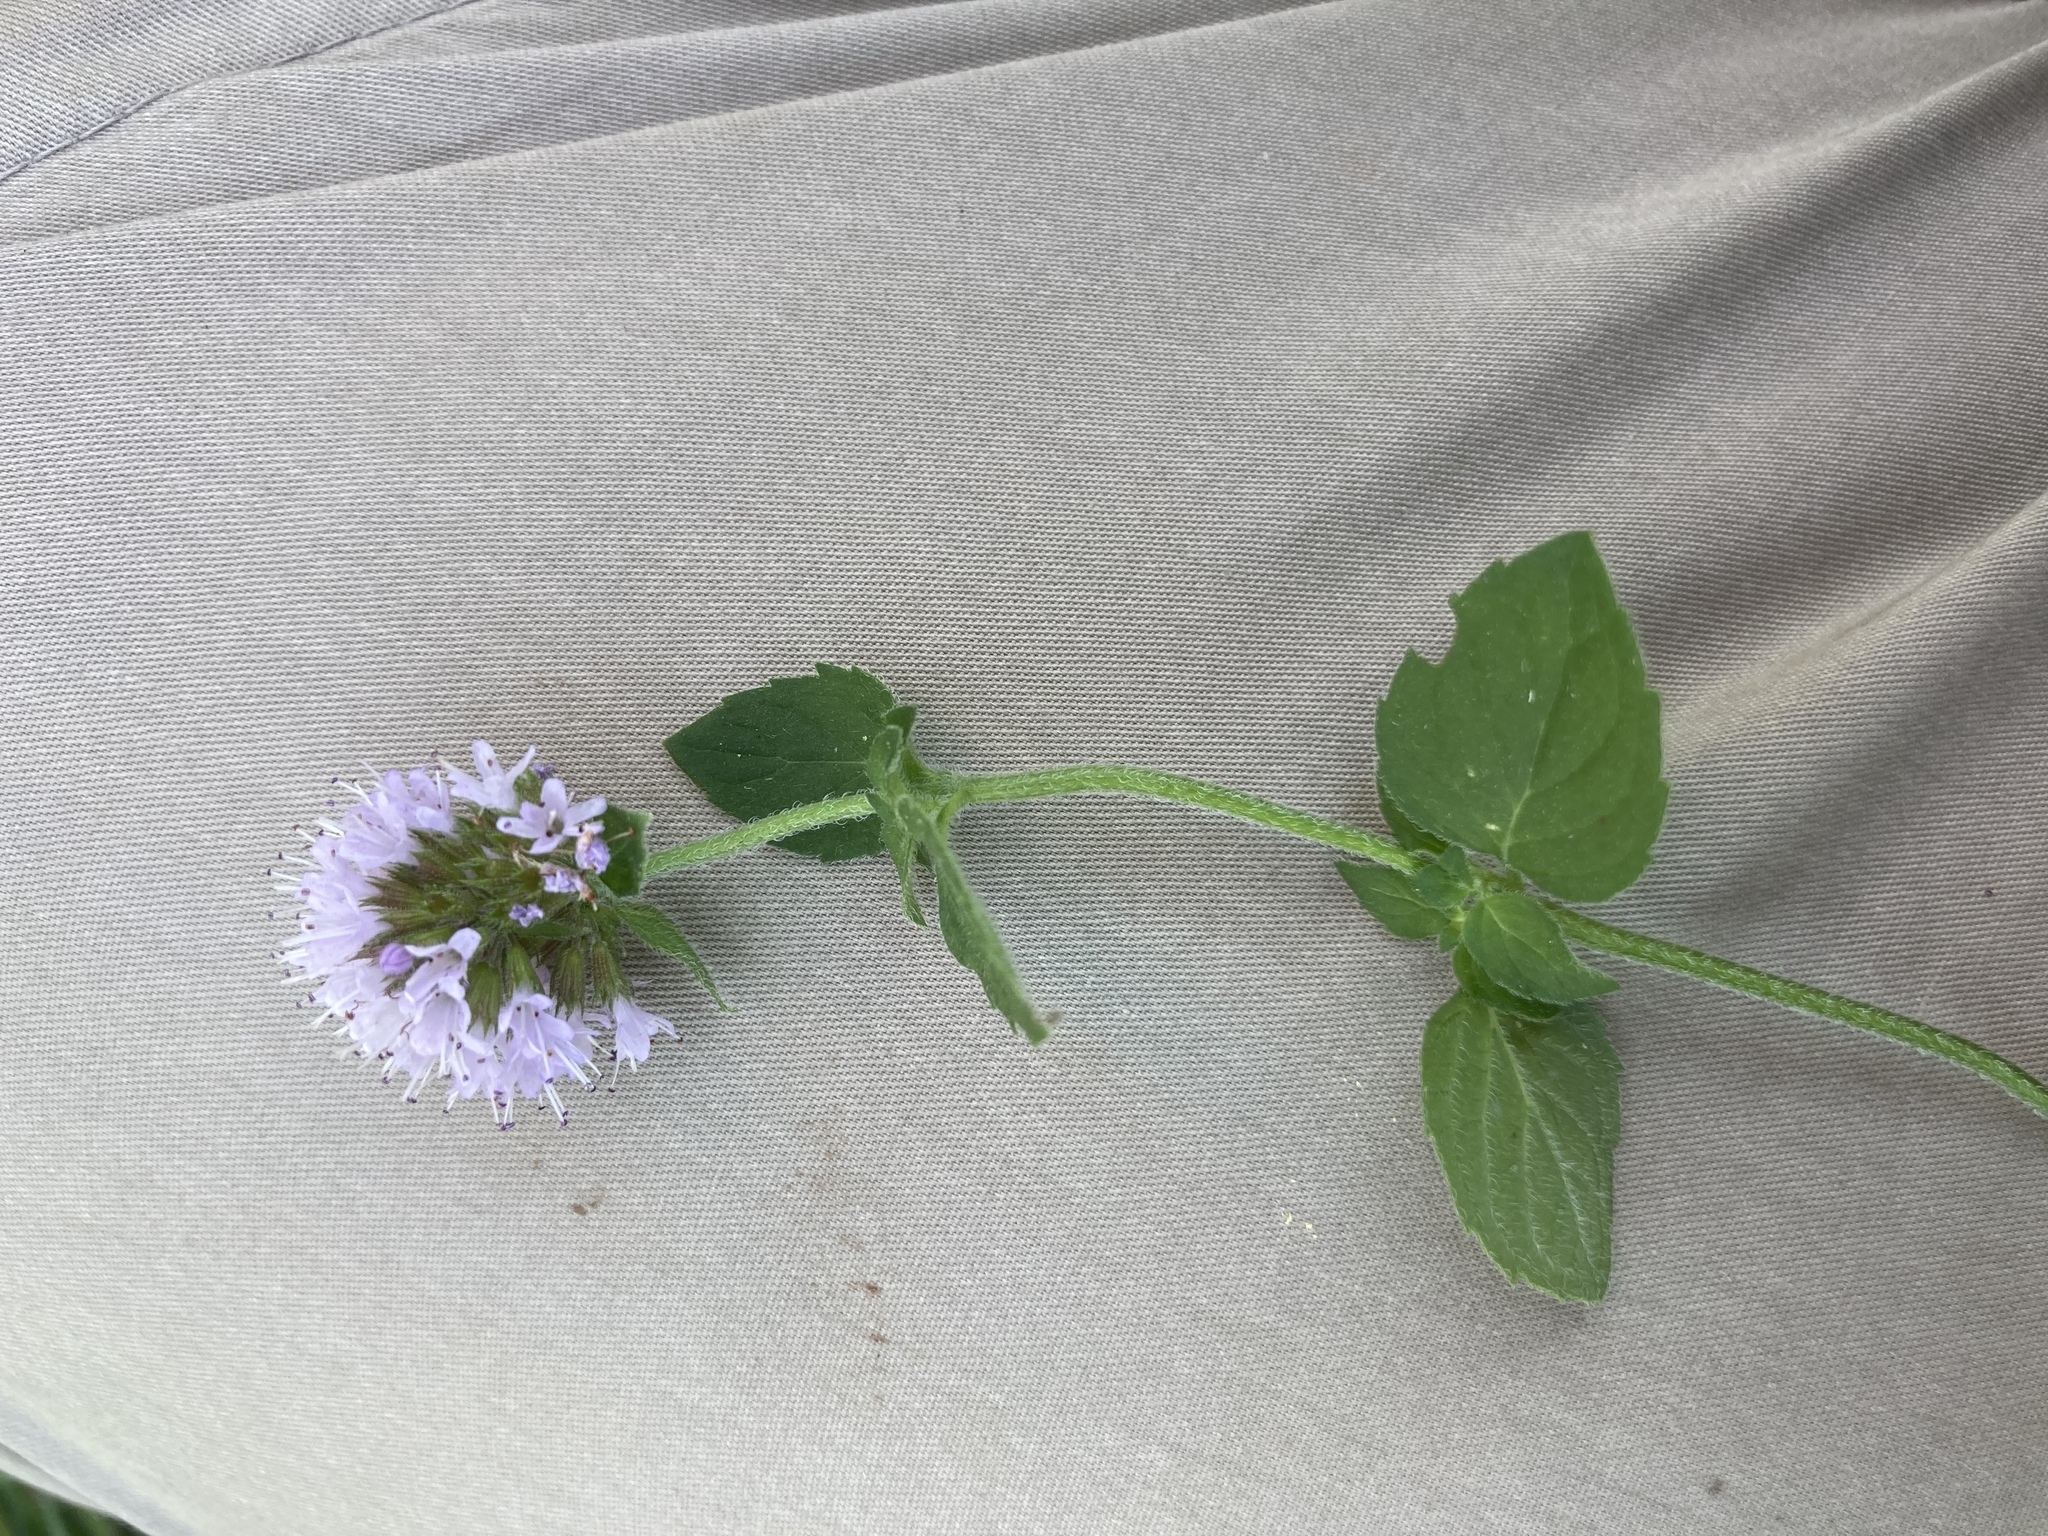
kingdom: Plantae
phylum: Tracheophyta
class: Magnoliopsida
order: Lamiales
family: Lamiaceae
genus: Mentha
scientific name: Mentha aquatica
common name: Water mint
